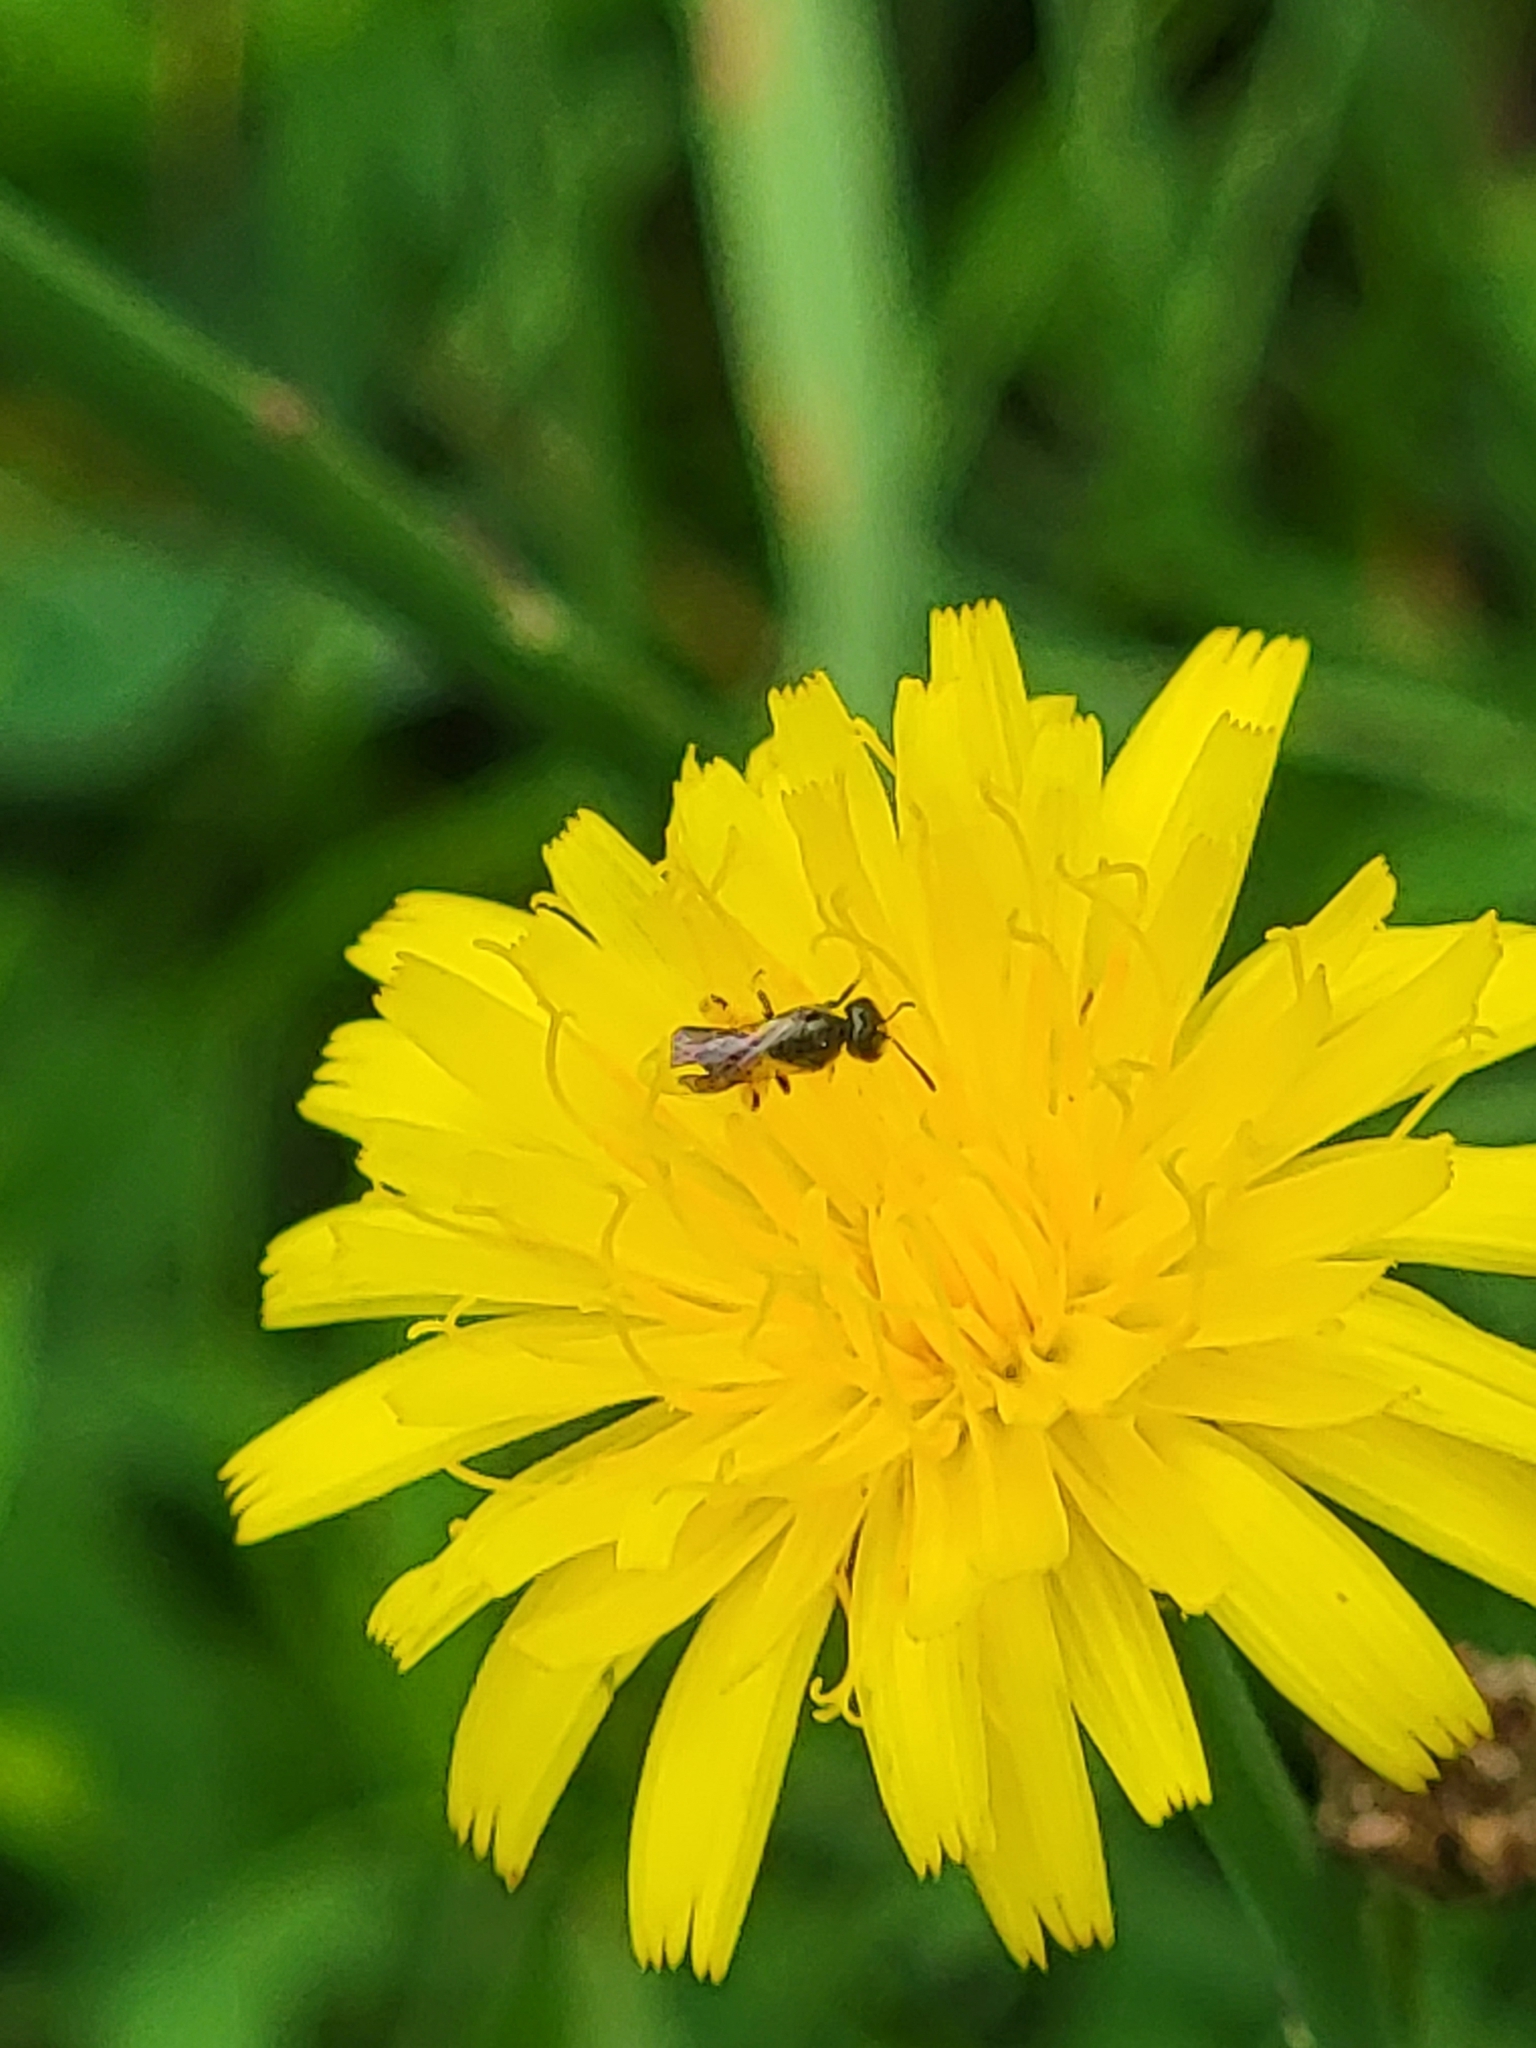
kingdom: Plantae
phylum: Tracheophyta
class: Magnoliopsida
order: Asterales
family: Asteraceae
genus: Hypochaeris
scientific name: Hypochaeris radicata
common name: Flatweed
